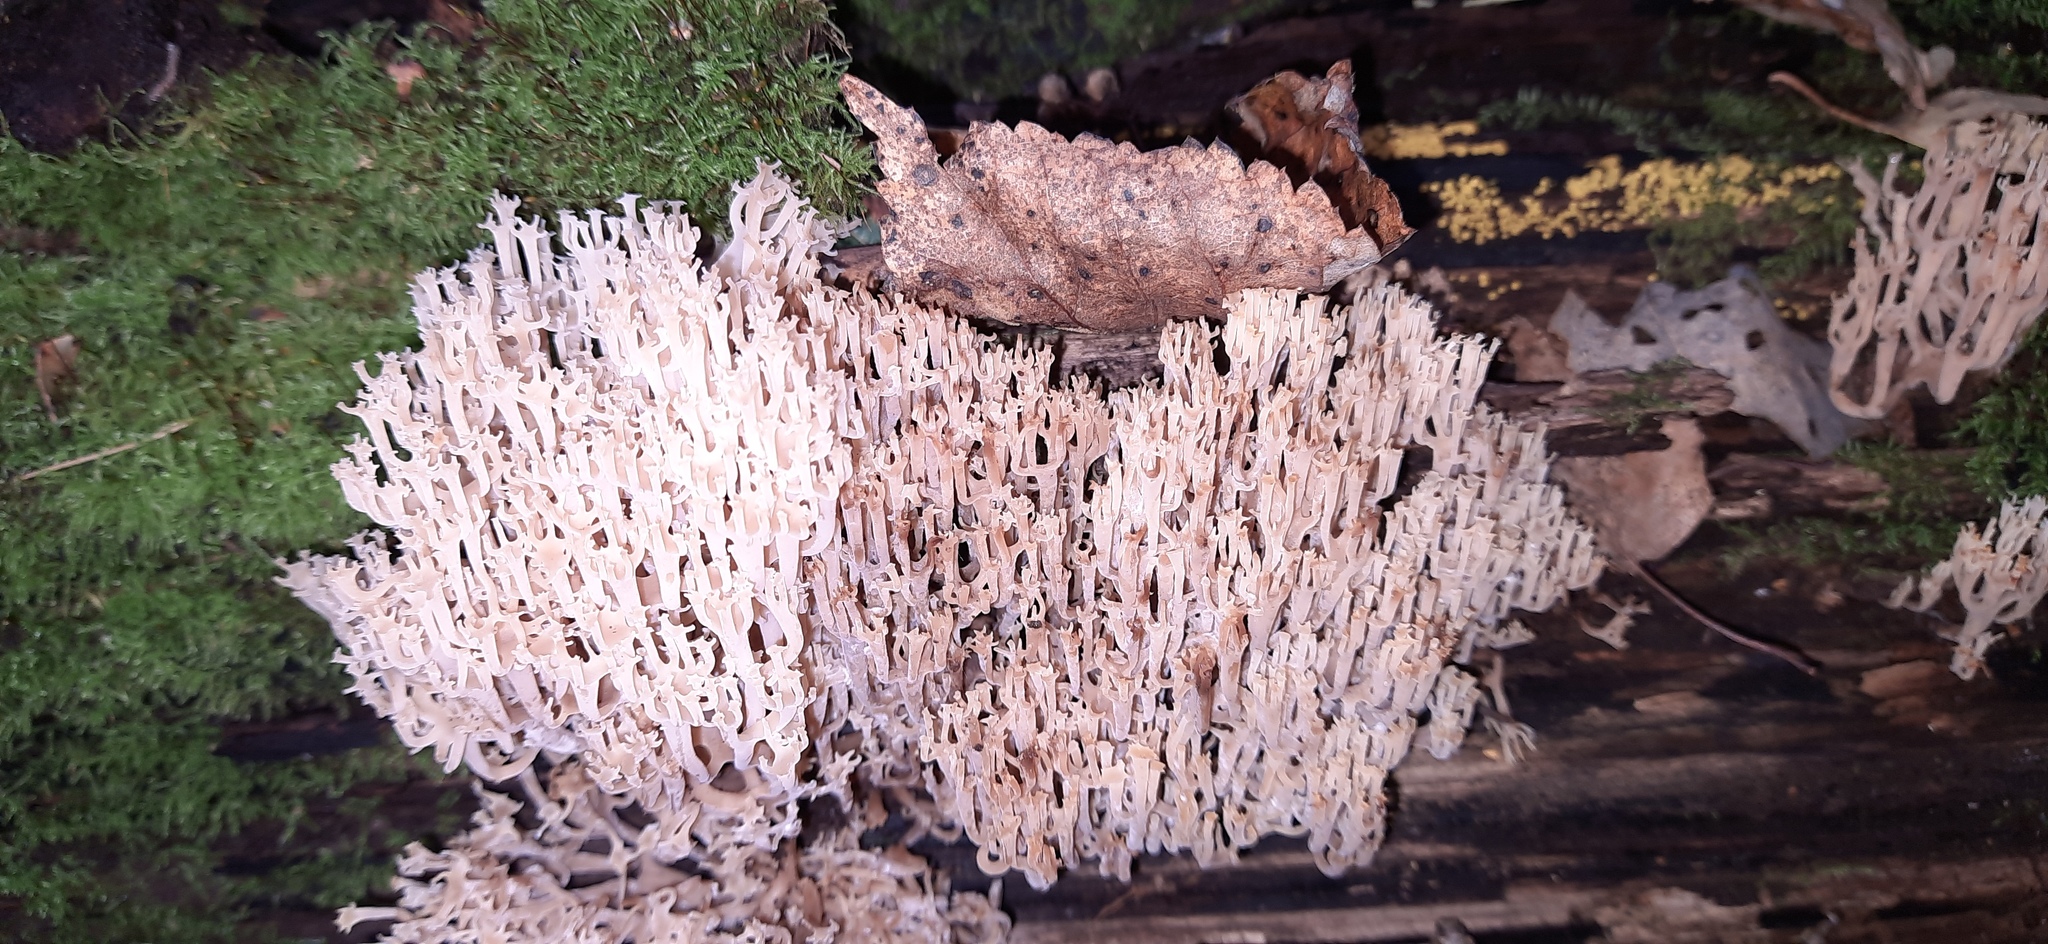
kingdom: Fungi
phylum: Basidiomycota
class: Agaricomycetes
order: Russulales
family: Auriscalpiaceae
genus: Artomyces
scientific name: Artomyces pyxidatus
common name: Crown-tipped coral fungus
